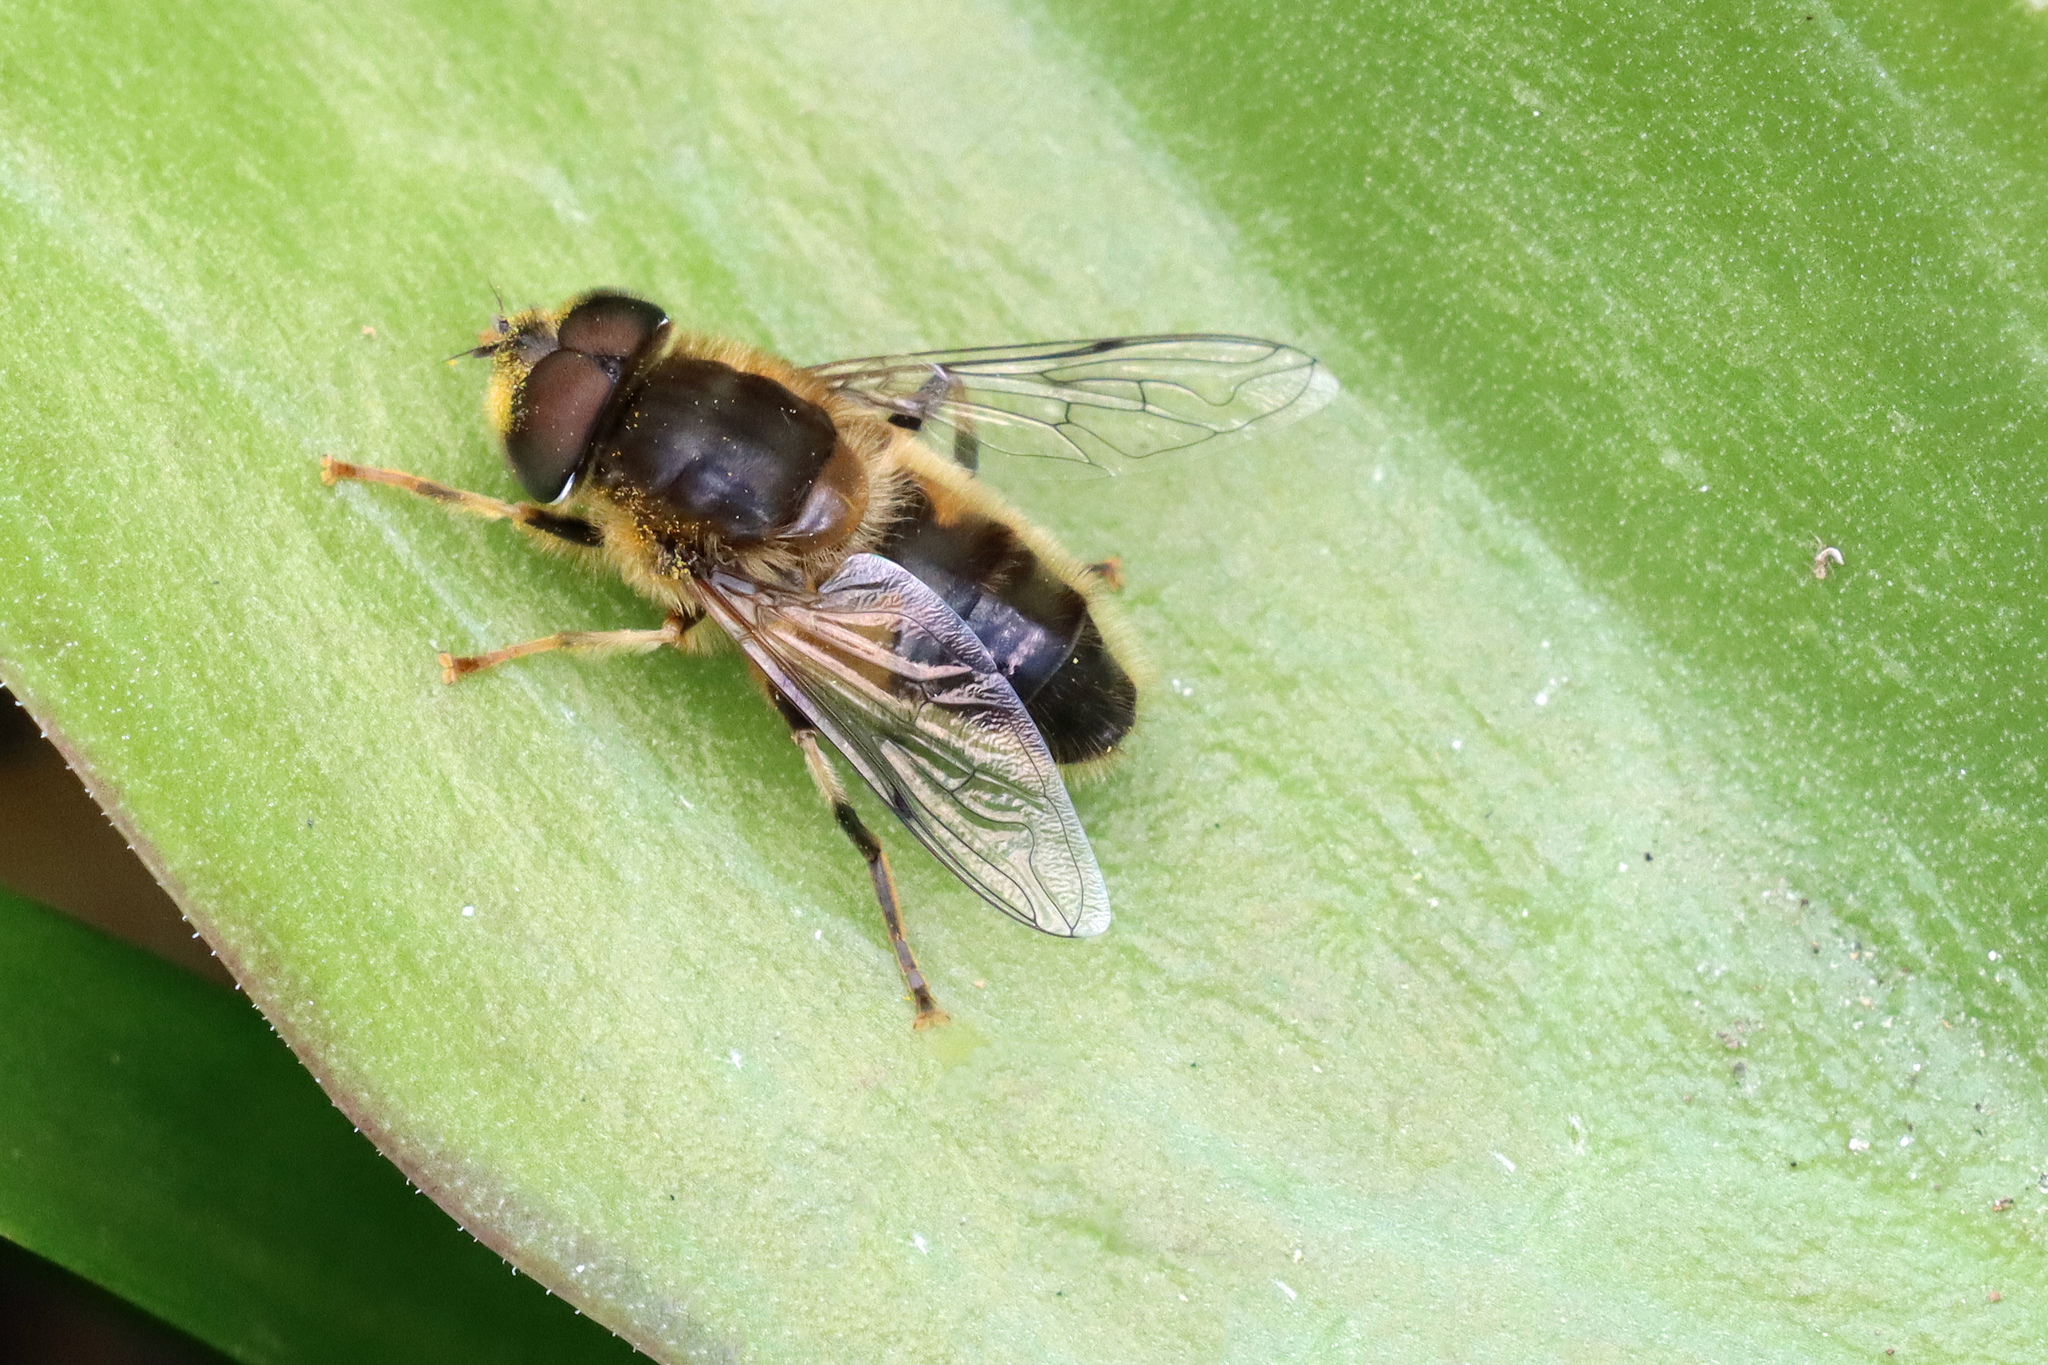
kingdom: Animalia
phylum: Arthropoda
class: Insecta
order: Diptera
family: Syrphidae
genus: Eristalis
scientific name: Eristalis pertinax
